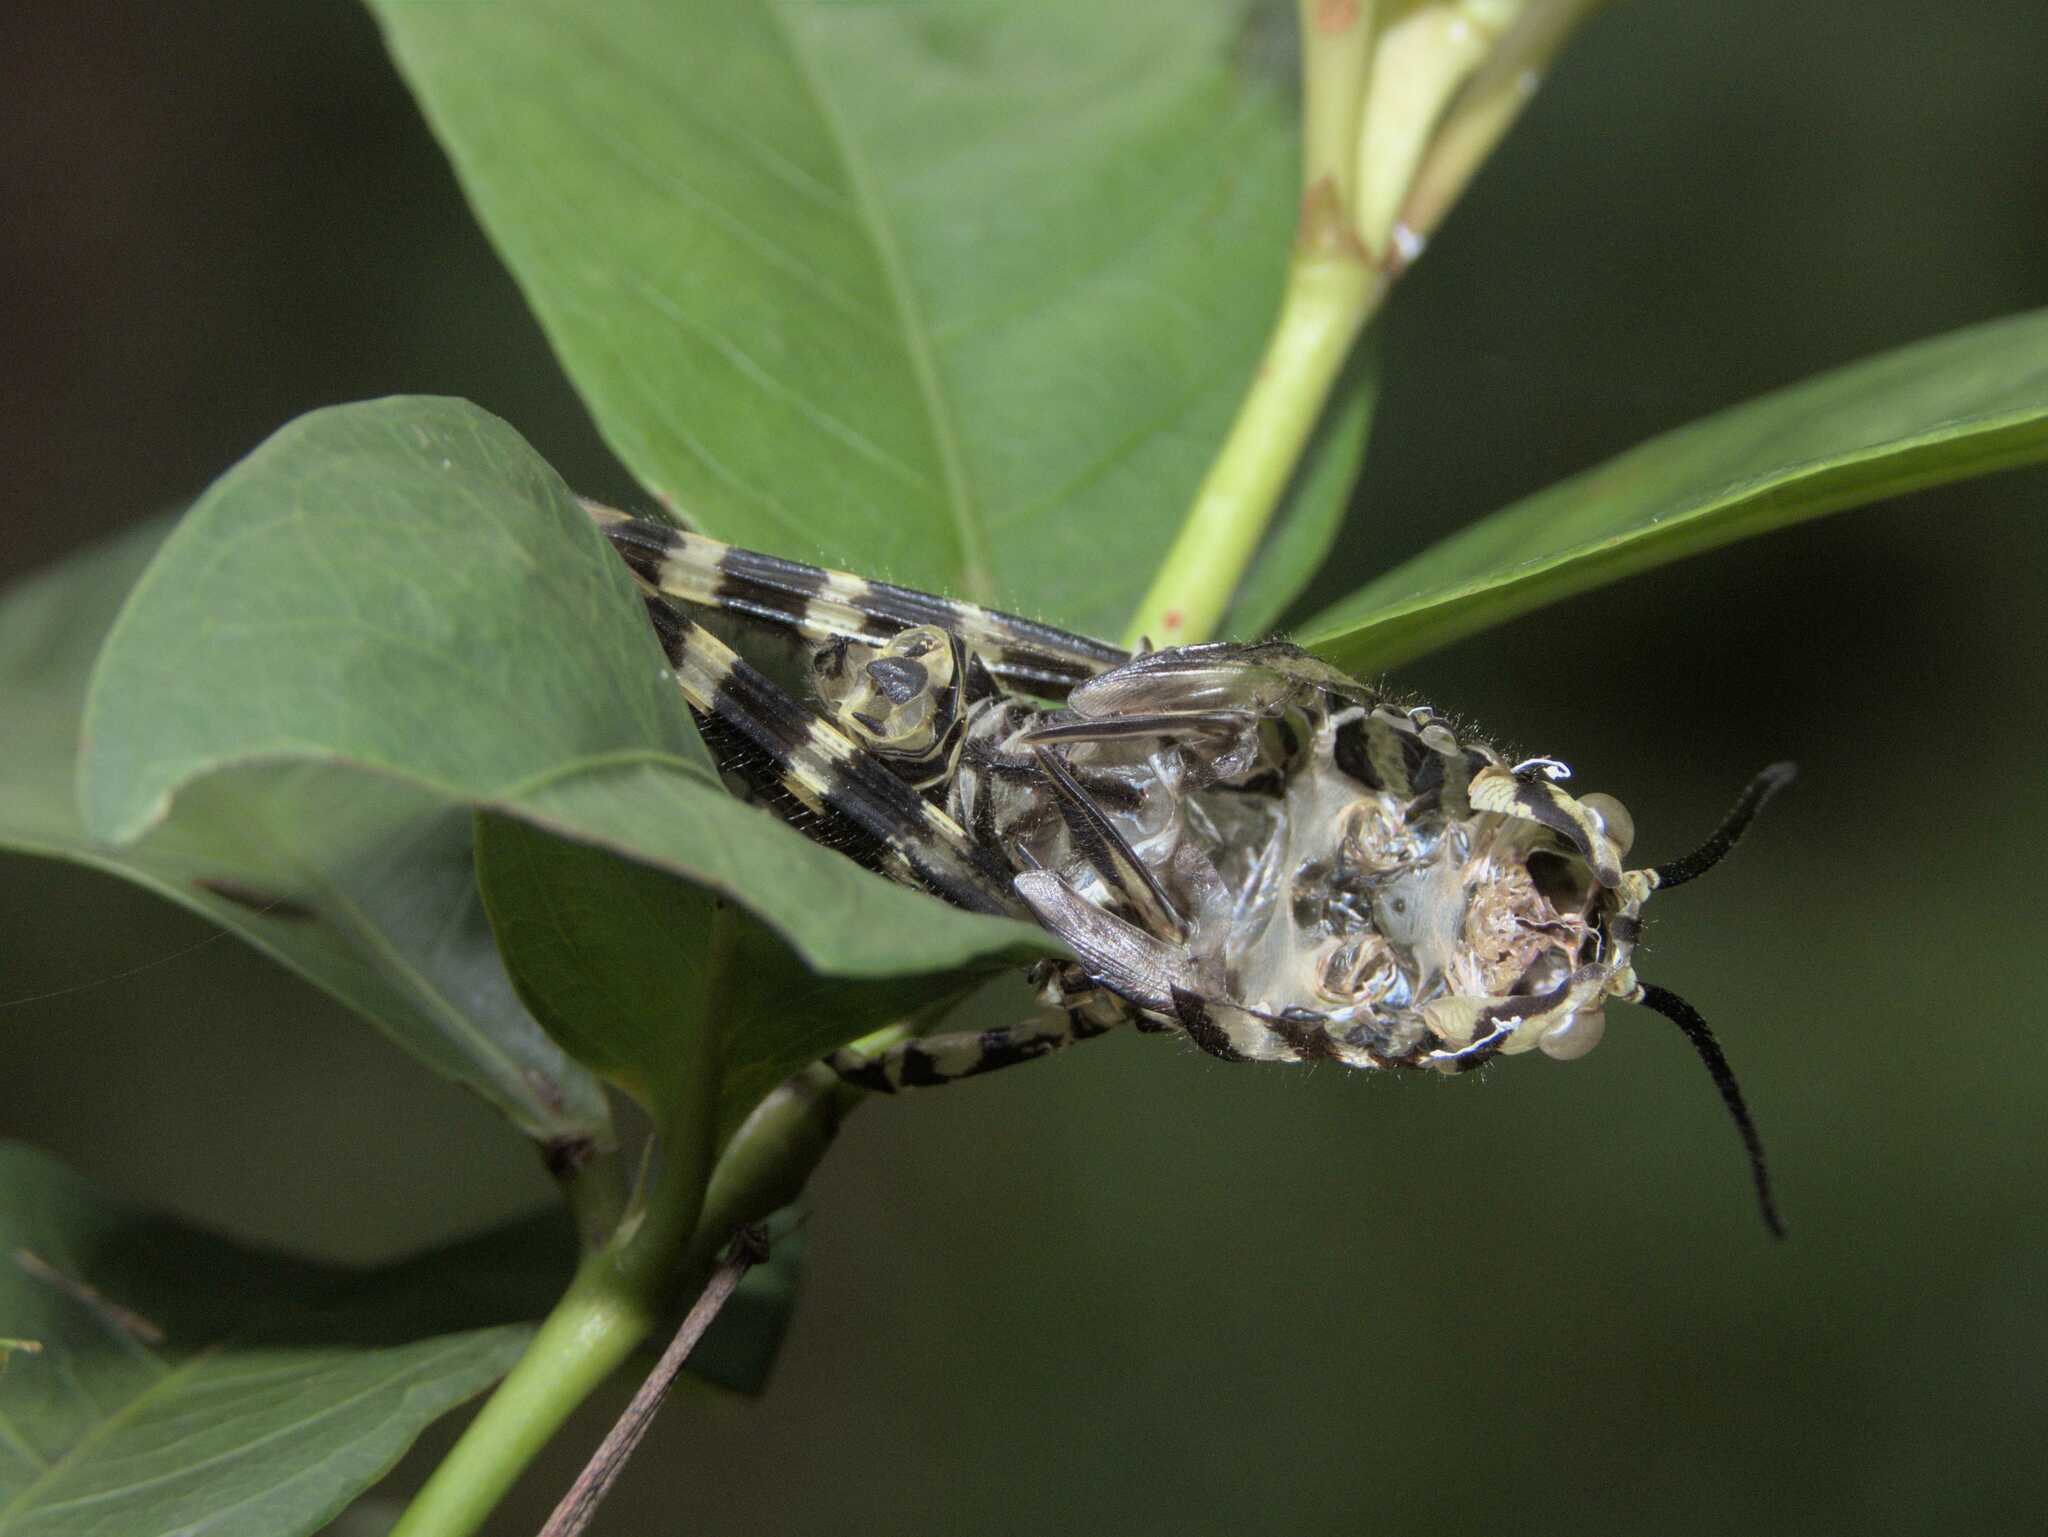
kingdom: Animalia
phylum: Arthropoda
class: Insecta
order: Orthoptera
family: Romaleidae
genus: Tropidacris
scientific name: Tropidacris cristata
